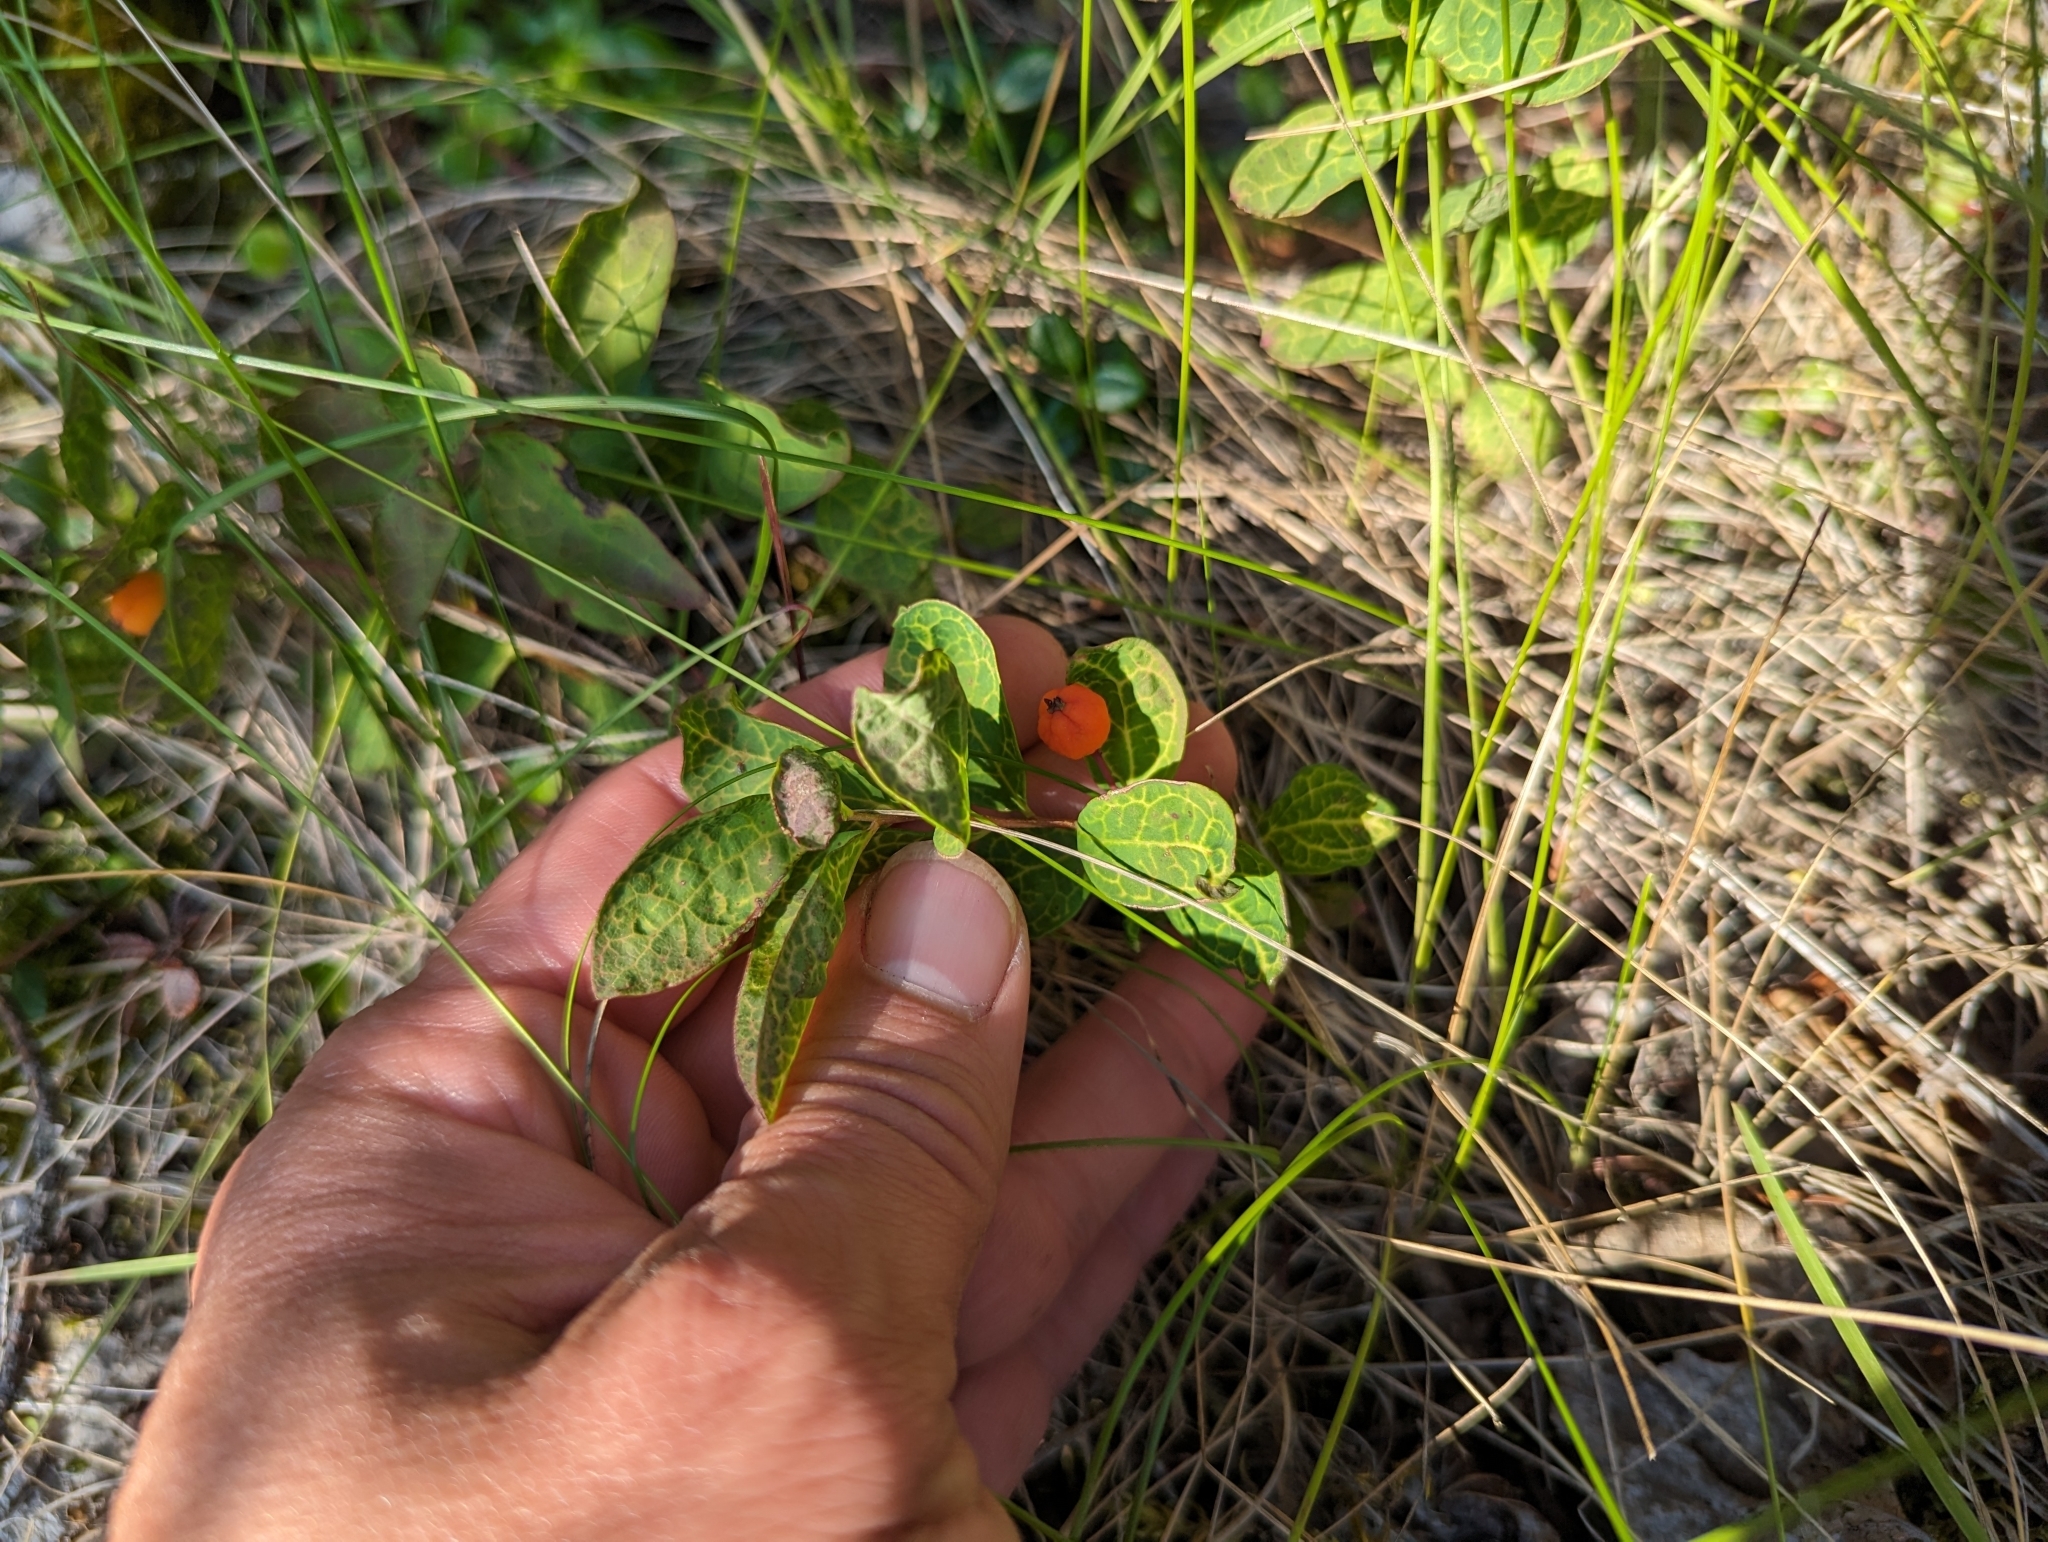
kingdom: Plantae
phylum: Tracheophyta
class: Magnoliopsida
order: Santalales
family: Comandraceae
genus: Geocaulon
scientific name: Geocaulon lividum
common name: Earthberry
